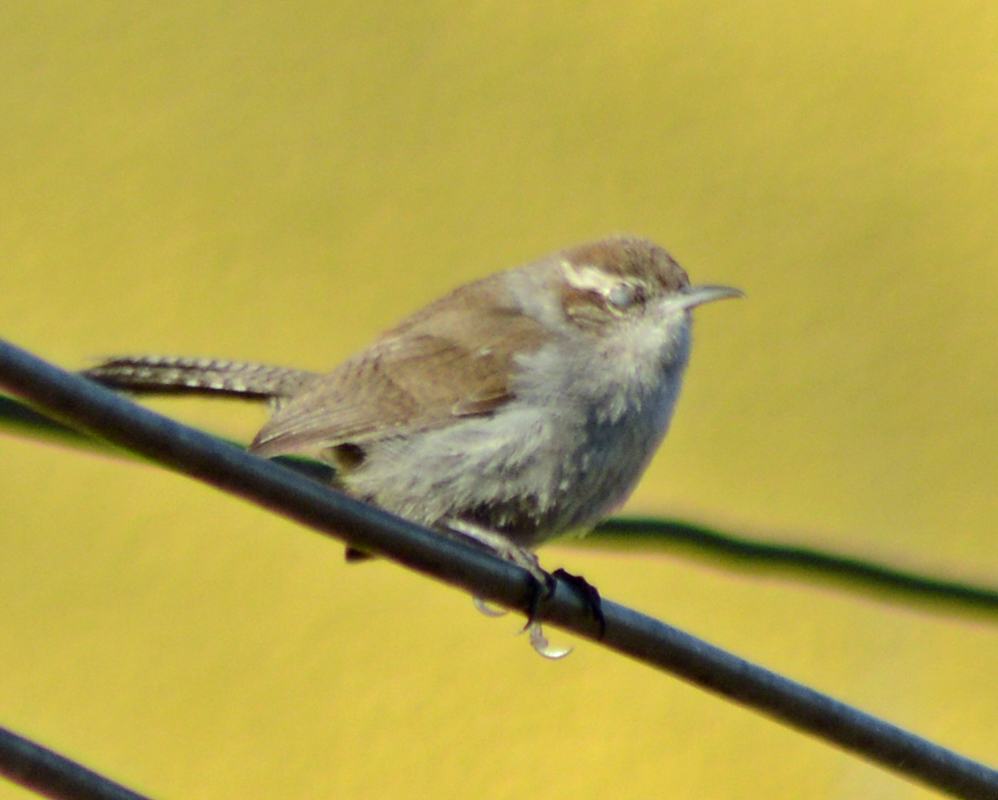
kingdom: Animalia
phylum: Chordata
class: Aves
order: Passeriformes
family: Troglodytidae
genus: Thryomanes
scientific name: Thryomanes bewickii
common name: Bewick's wren
